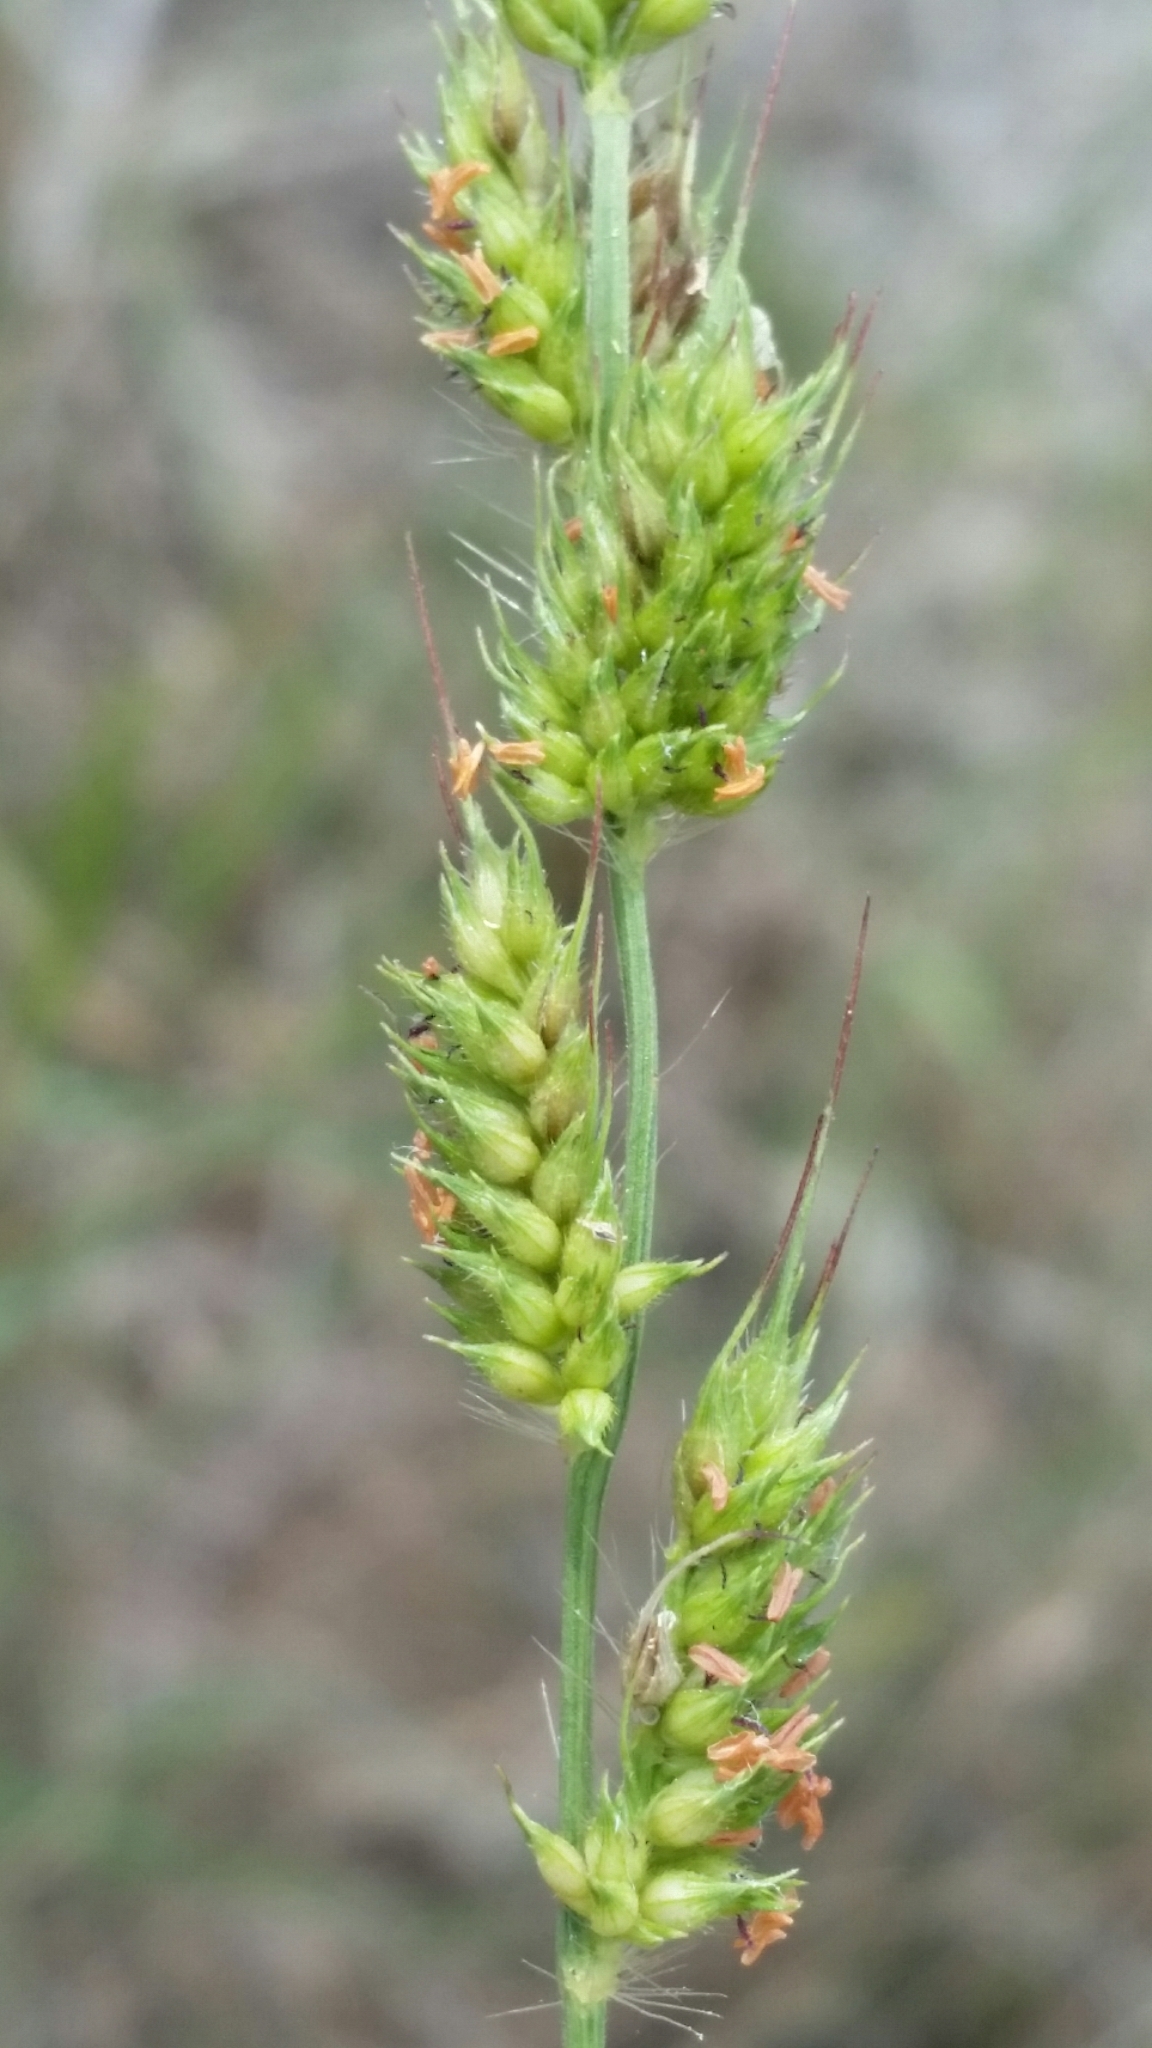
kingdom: Plantae
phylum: Tracheophyta
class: Liliopsida
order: Poales
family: Poaceae
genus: Echinochloa
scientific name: Echinochloa walteri
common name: Coast barnyard grass
